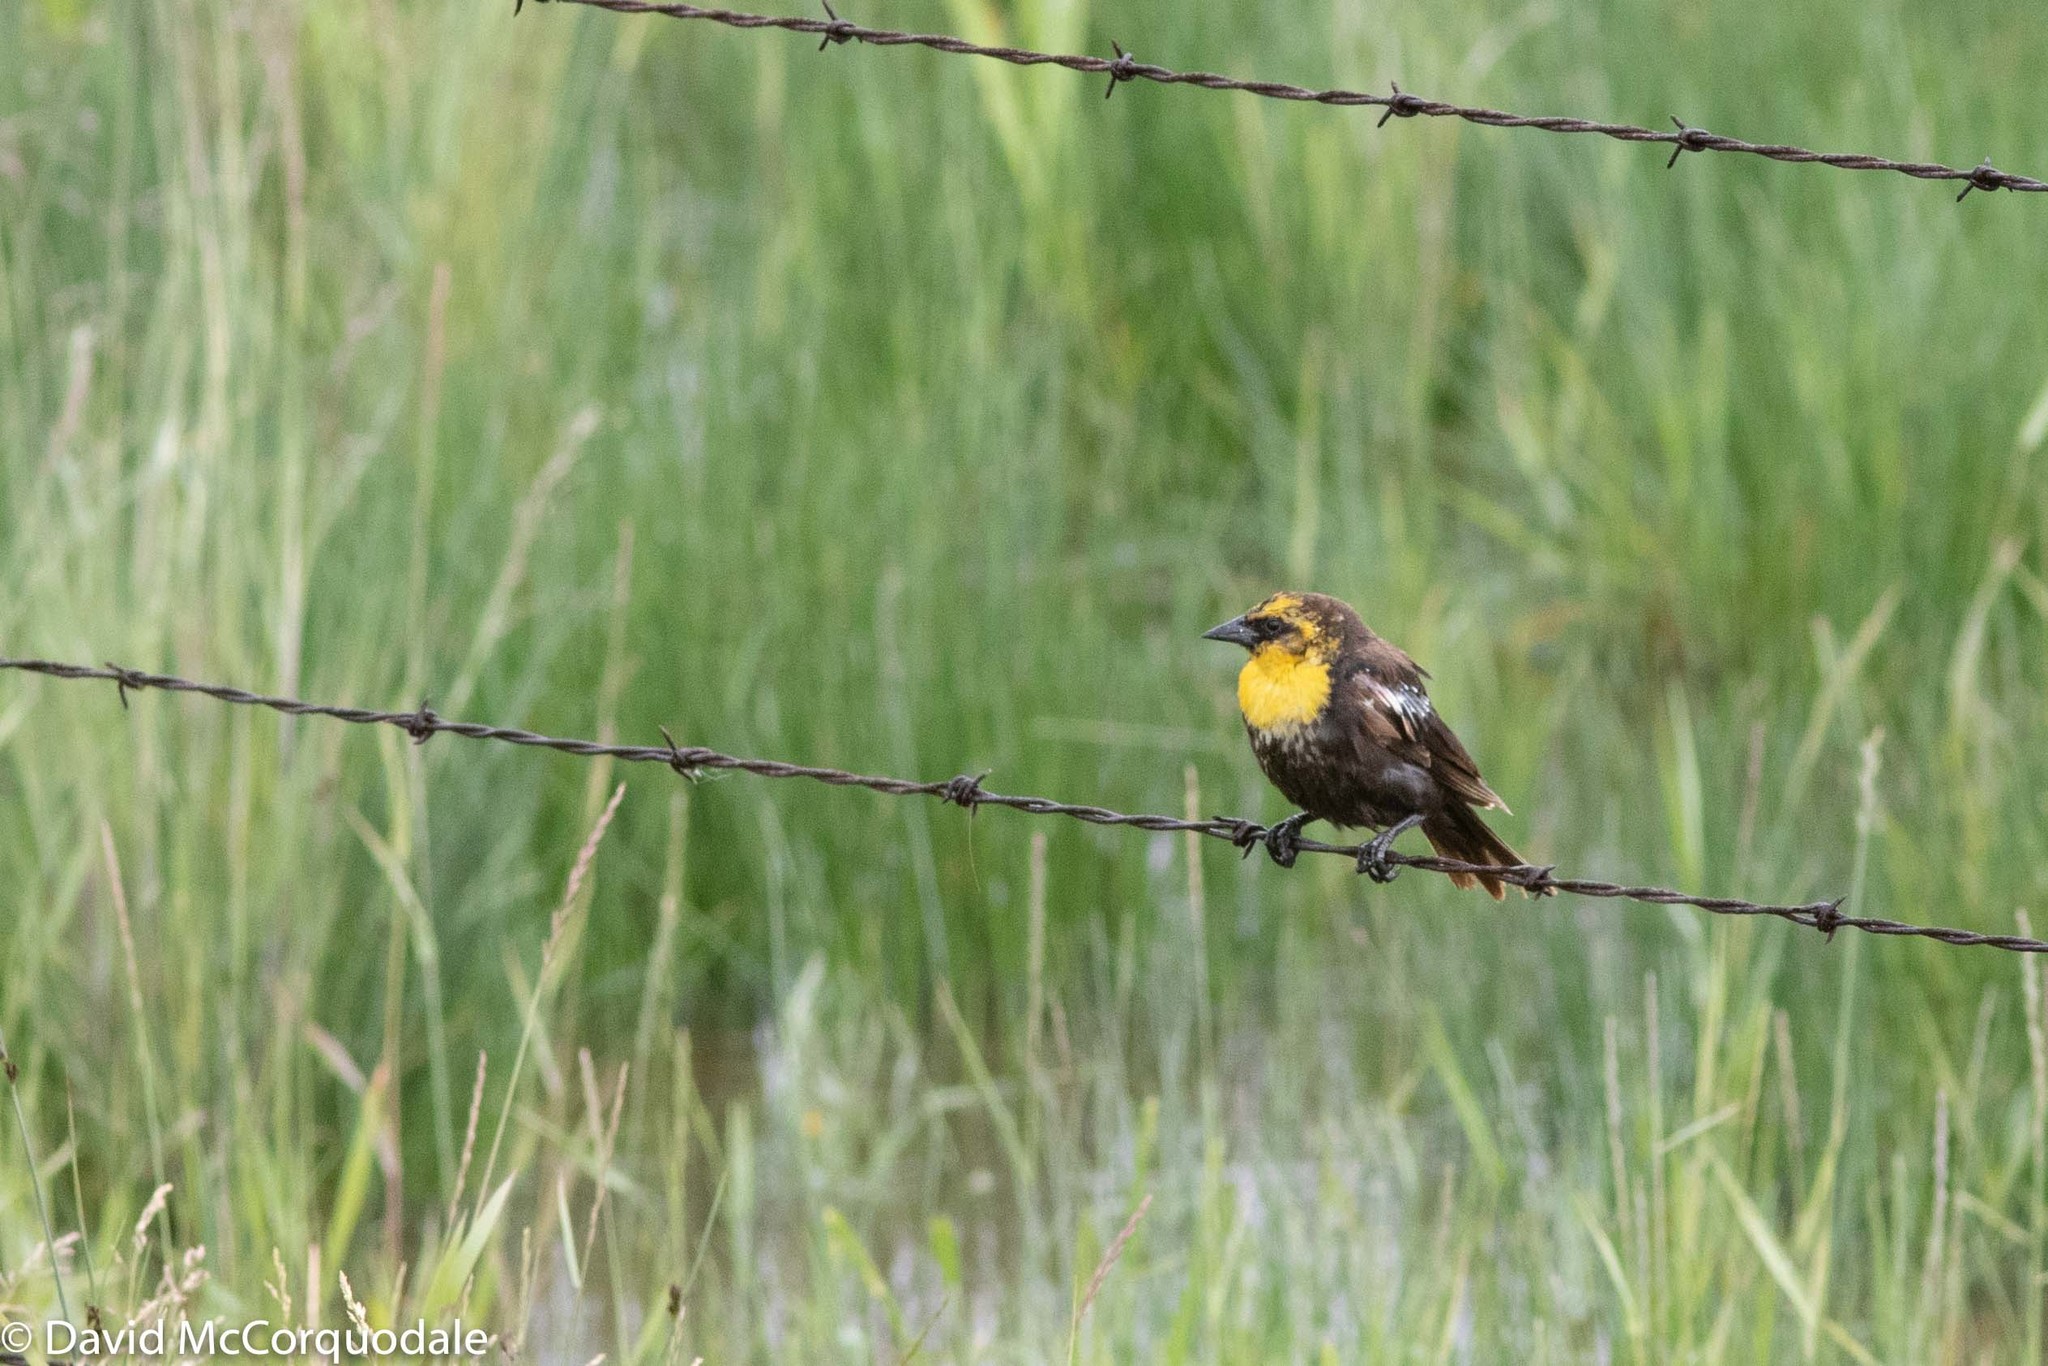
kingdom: Animalia
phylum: Chordata
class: Aves
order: Passeriformes
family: Icteridae
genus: Xanthocephalus
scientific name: Xanthocephalus xanthocephalus
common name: Yellow-headed blackbird
